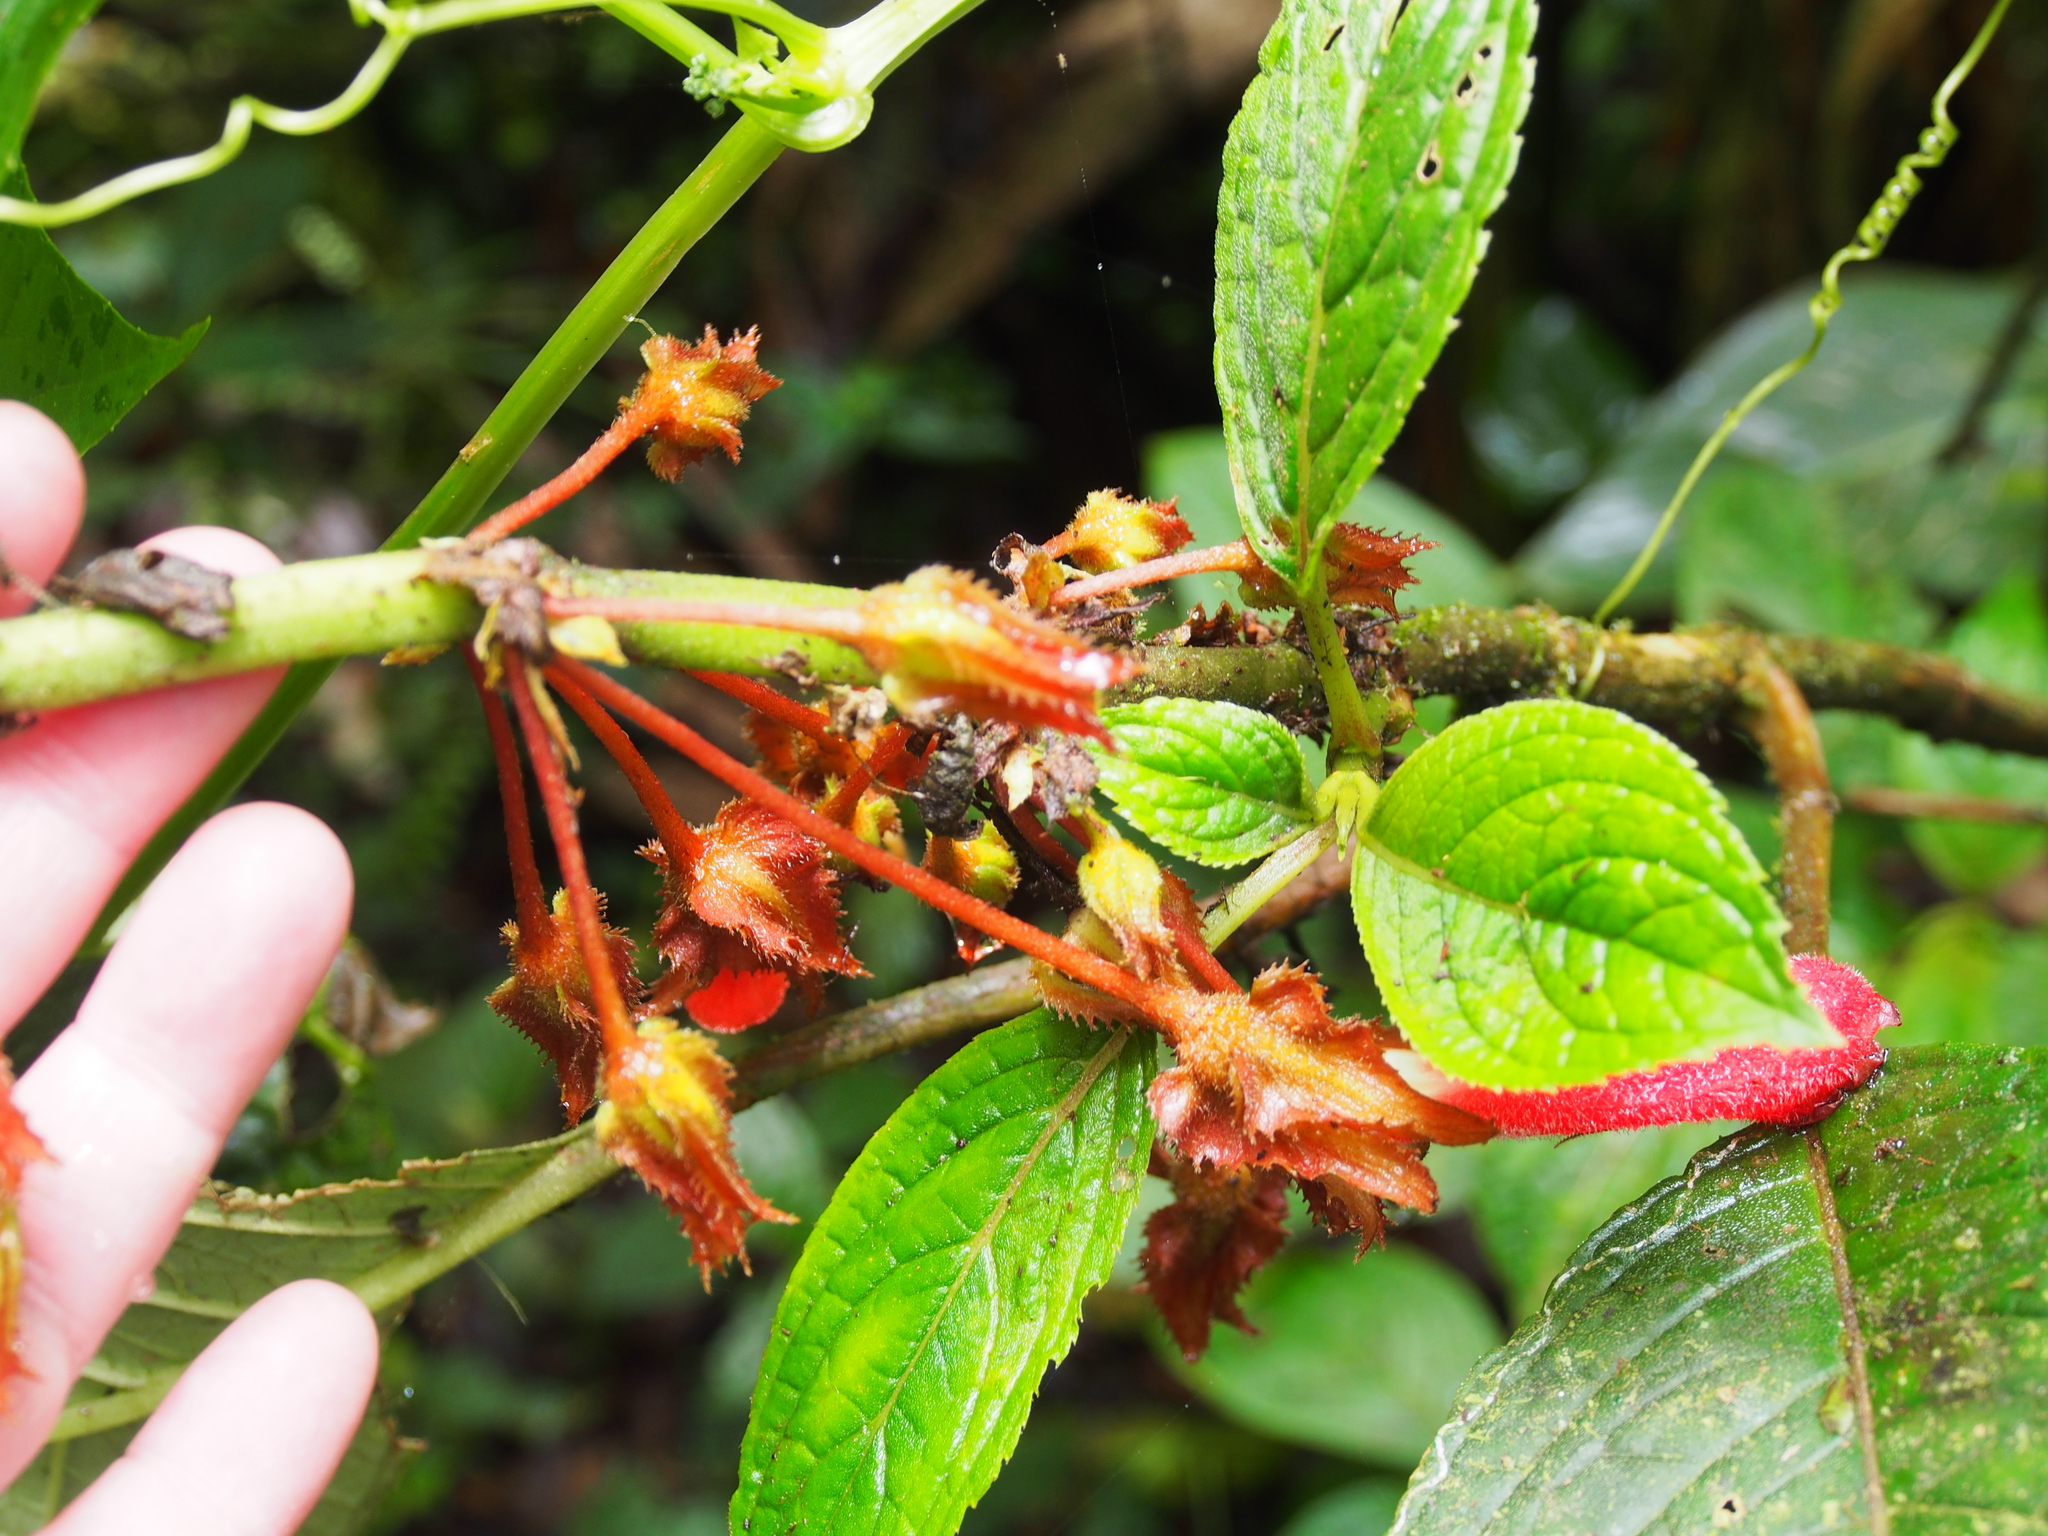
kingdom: Plantae
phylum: Tracheophyta
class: Magnoliopsida
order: Lamiales
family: Gesneriaceae
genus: Glossoloma
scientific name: Glossoloma tetragonum
